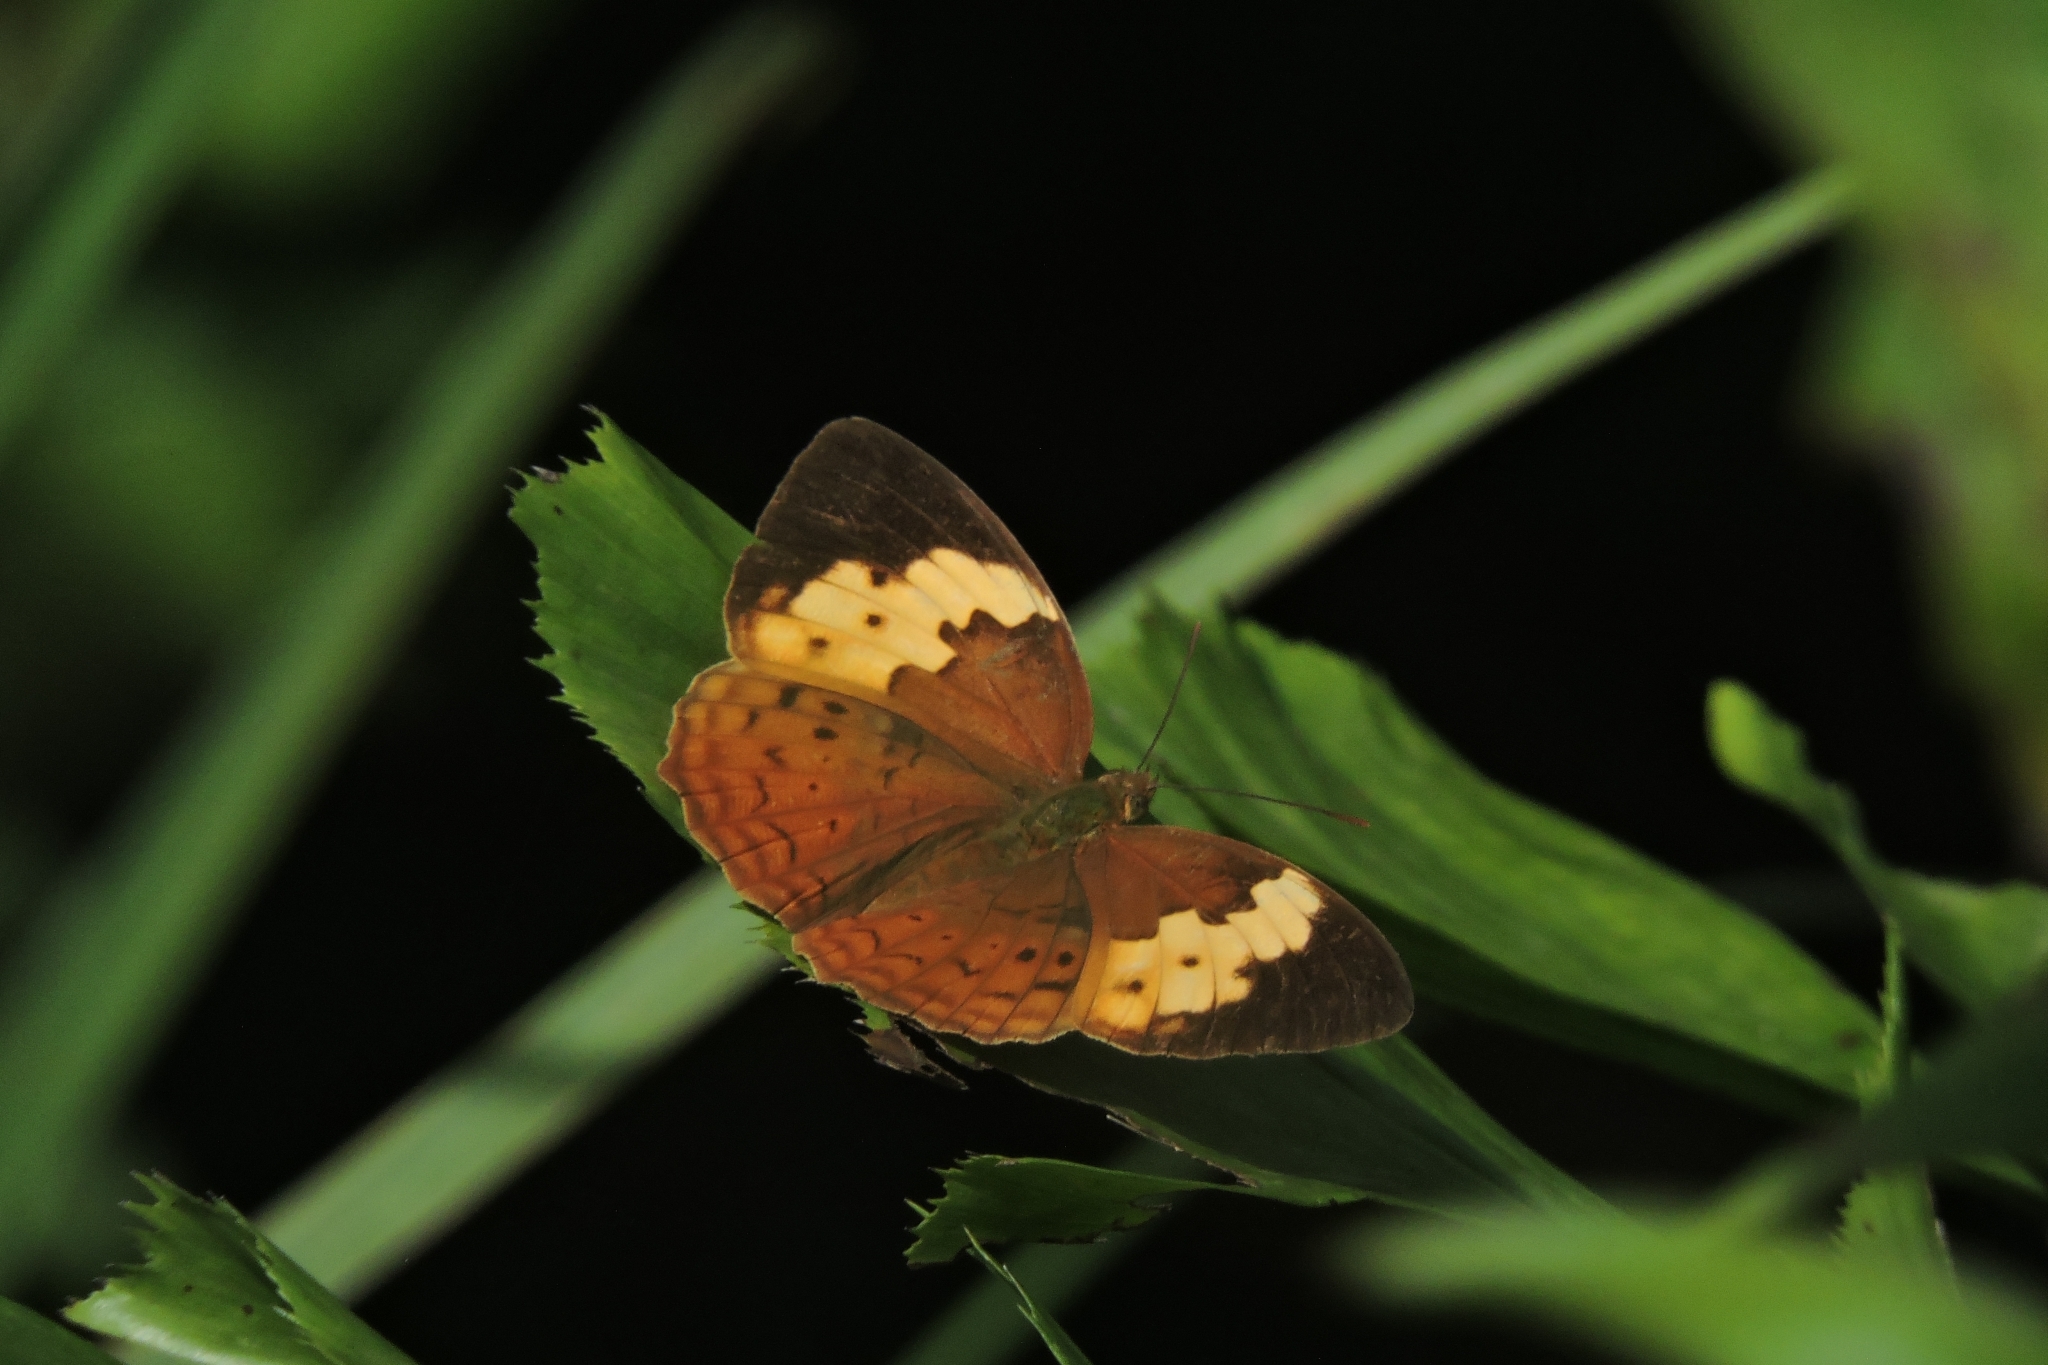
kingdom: Animalia
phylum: Arthropoda
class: Insecta
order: Lepidoptera
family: Nymphalidae
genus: Cupha
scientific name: Cupha erymanthis
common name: Rustic
